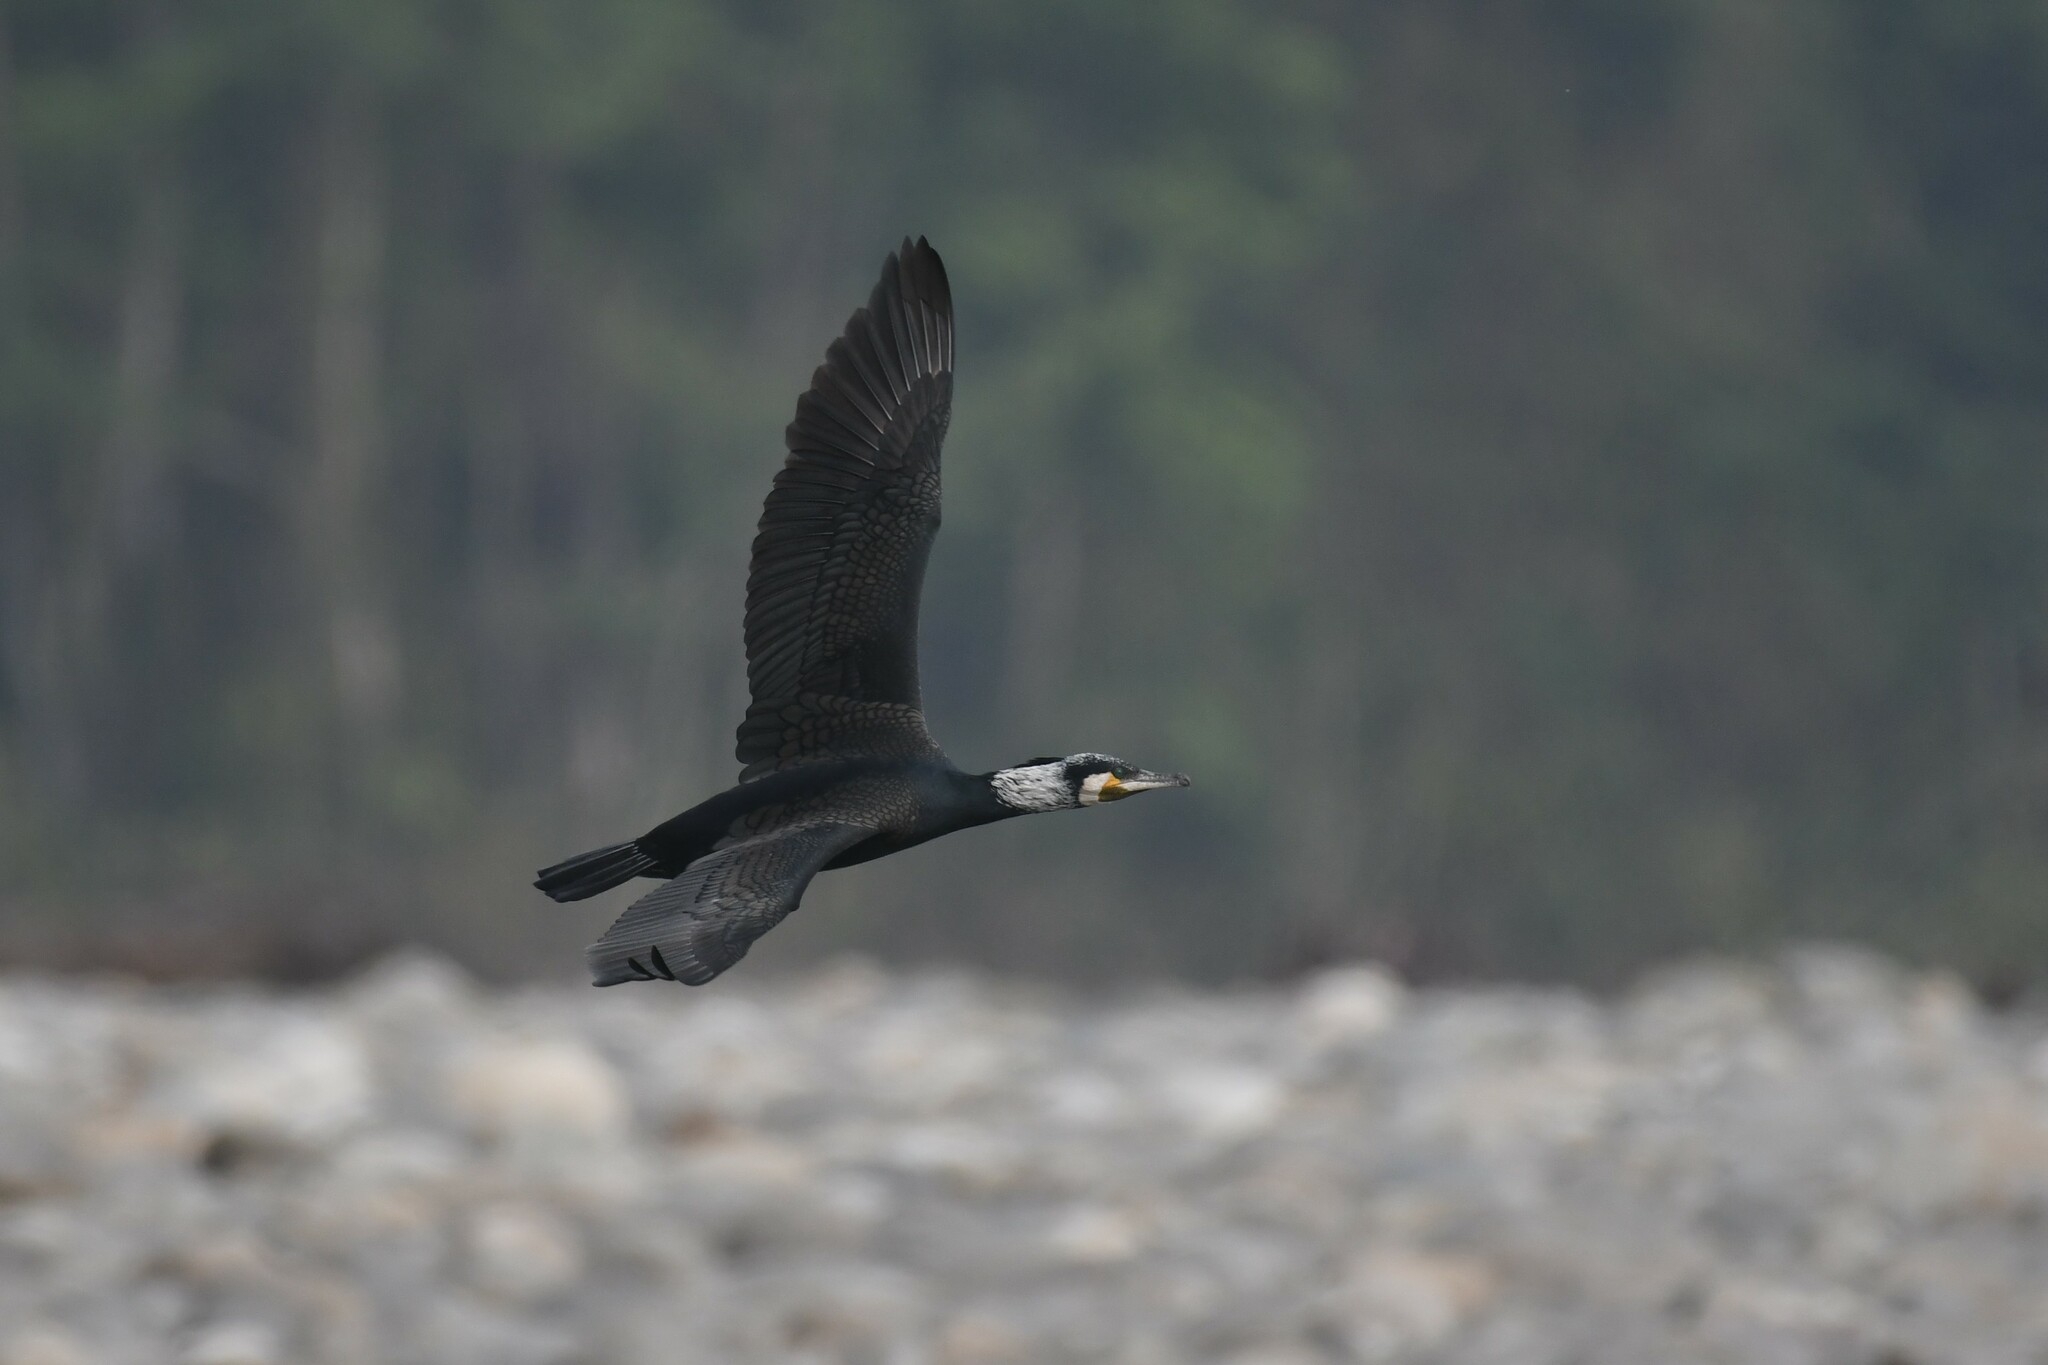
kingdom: Animalia
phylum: Chordata
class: Aves
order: Suliformes
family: Phalacrocoracidae
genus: Phalacrocorax
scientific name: Phalacrocorax carbo
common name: Great cormorant
